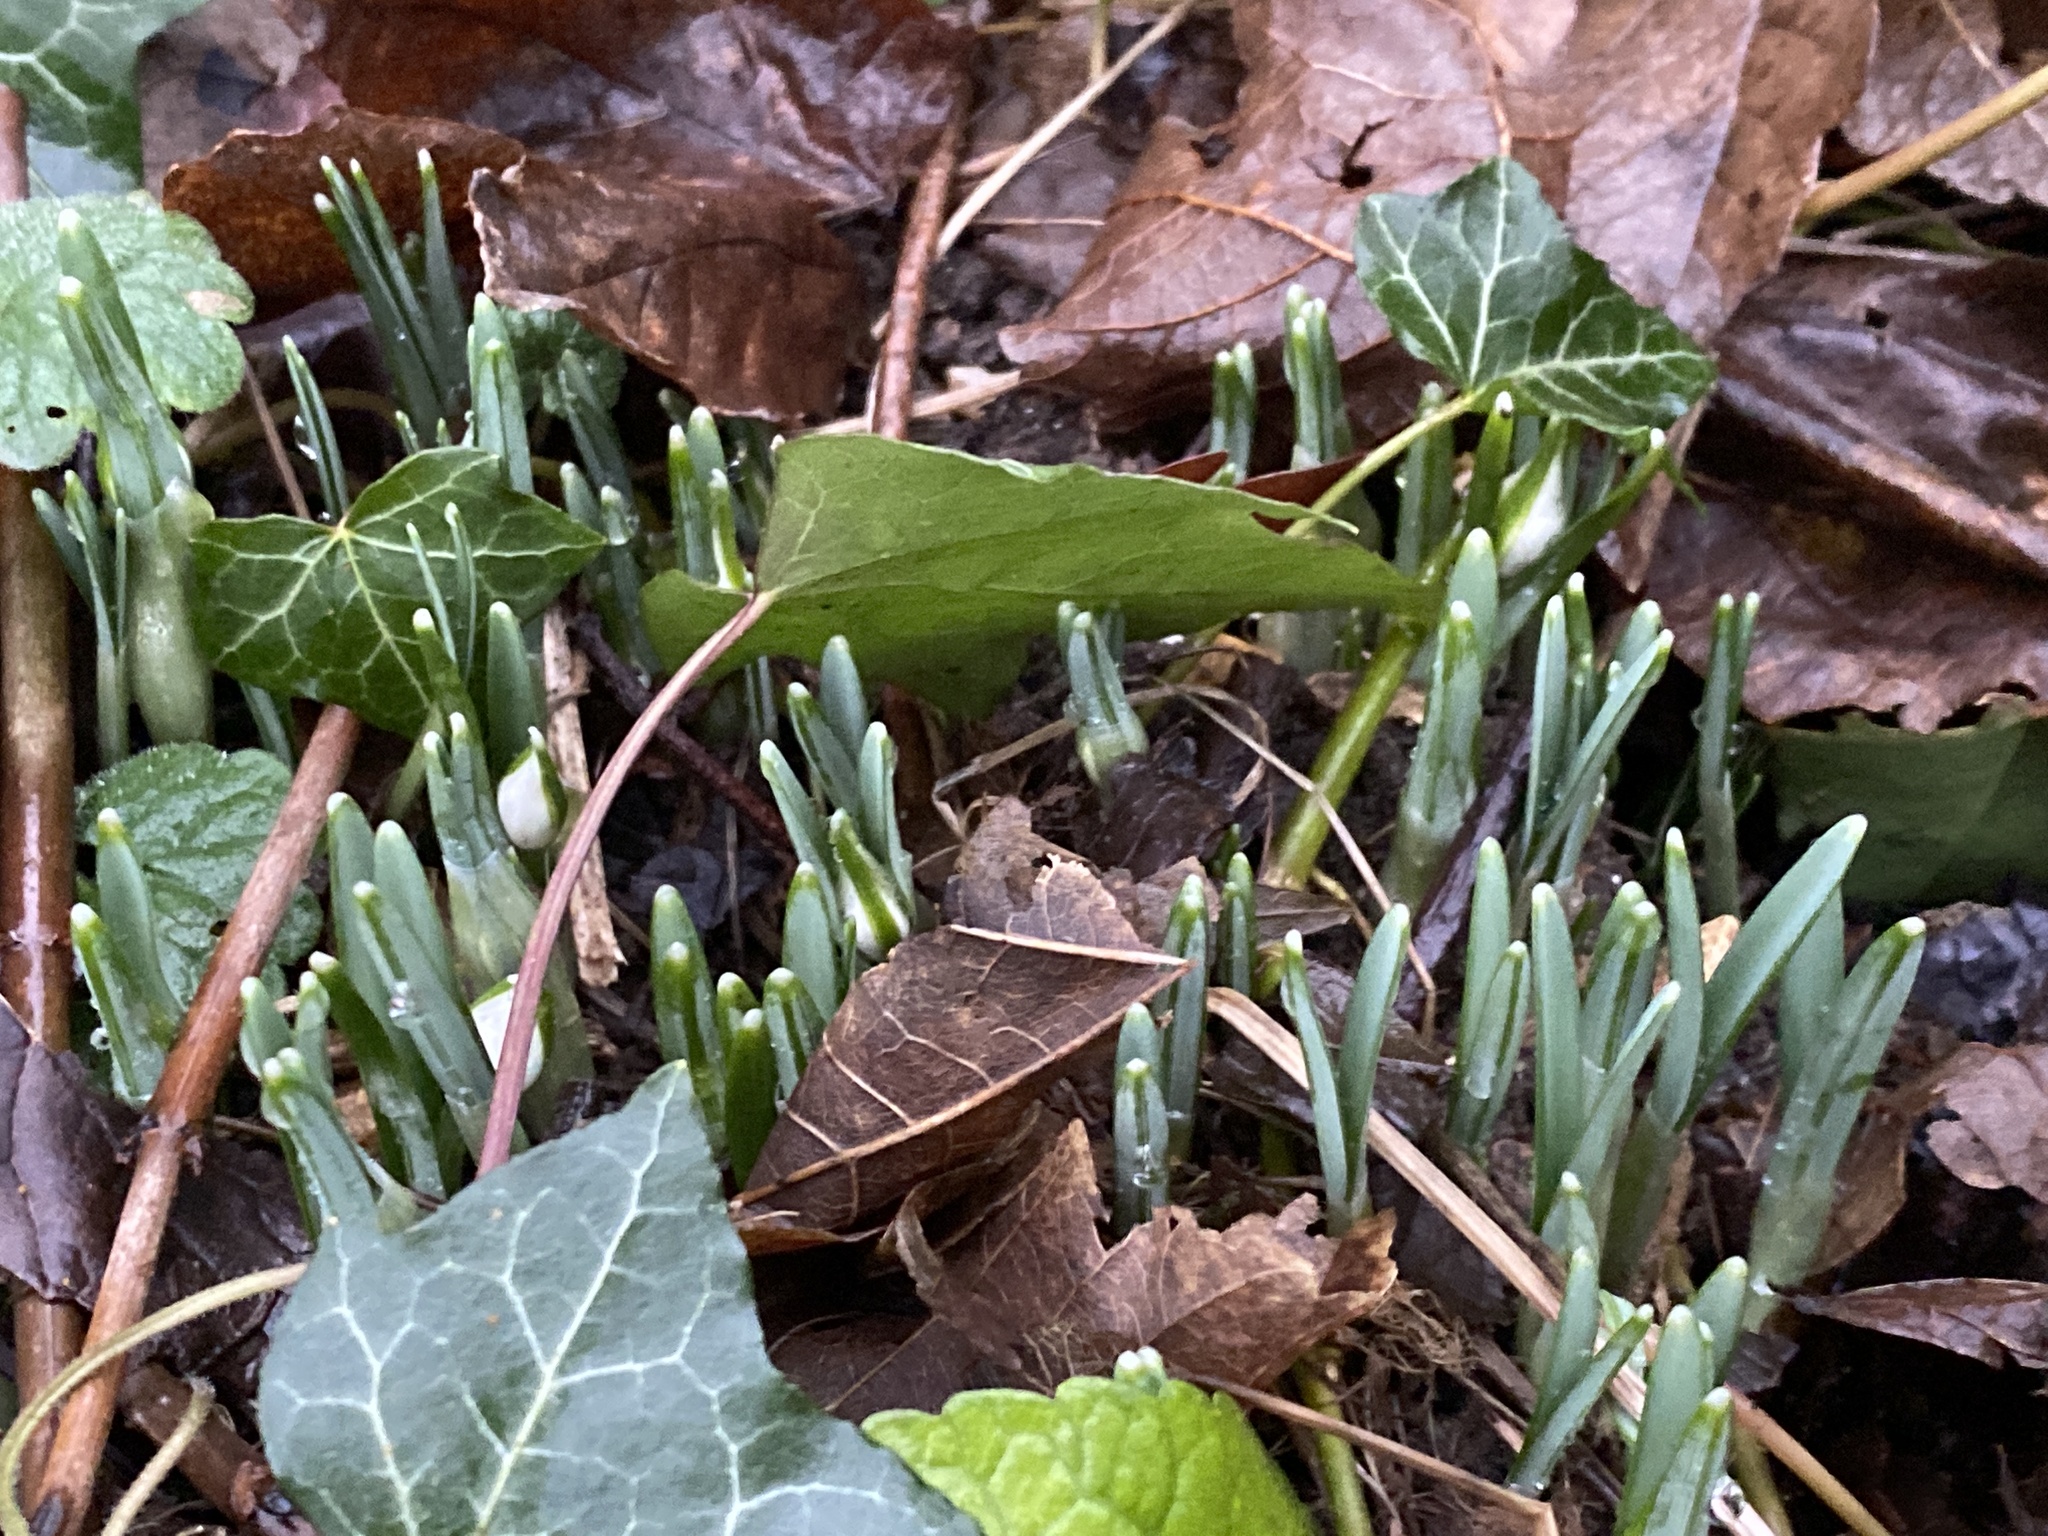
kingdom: Plantae
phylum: Tracheophyta
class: Liliopsida
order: Asparagales
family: Amaryllidaceae
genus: Galanthus
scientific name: Galanthus nivalis
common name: Snowdrop
